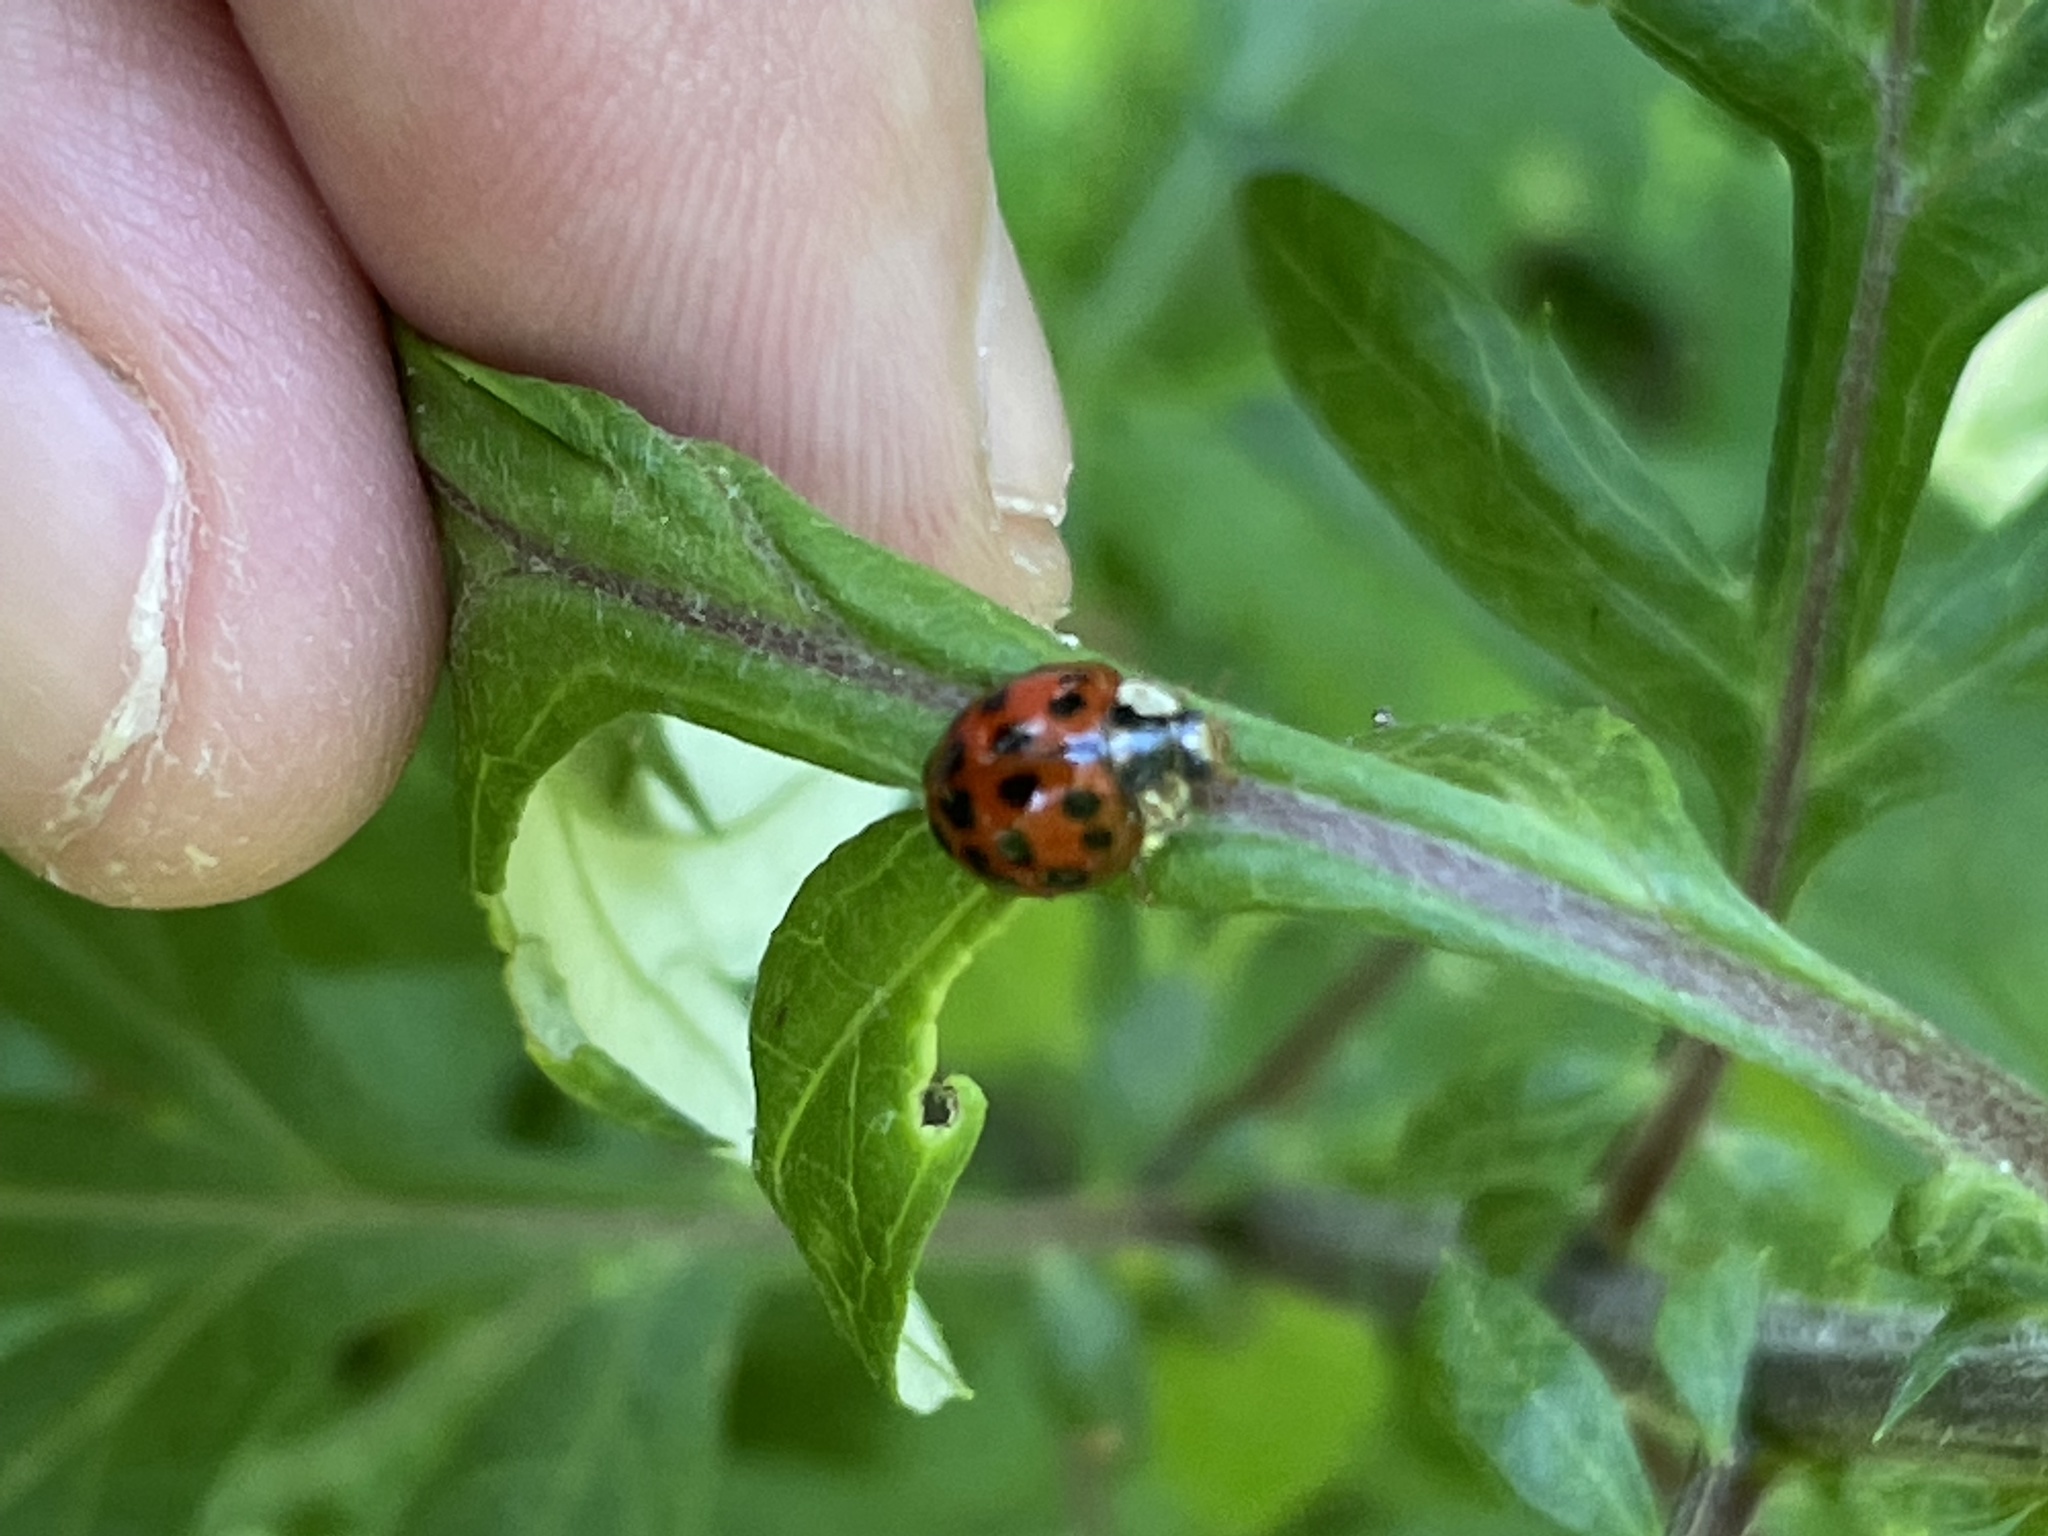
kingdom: Animalia
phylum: Arthropoda
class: Insecta
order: Coleoptera
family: Coccinellidae
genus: Harmonia
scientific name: Harmonia axyridis
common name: Harlequin ladybird
